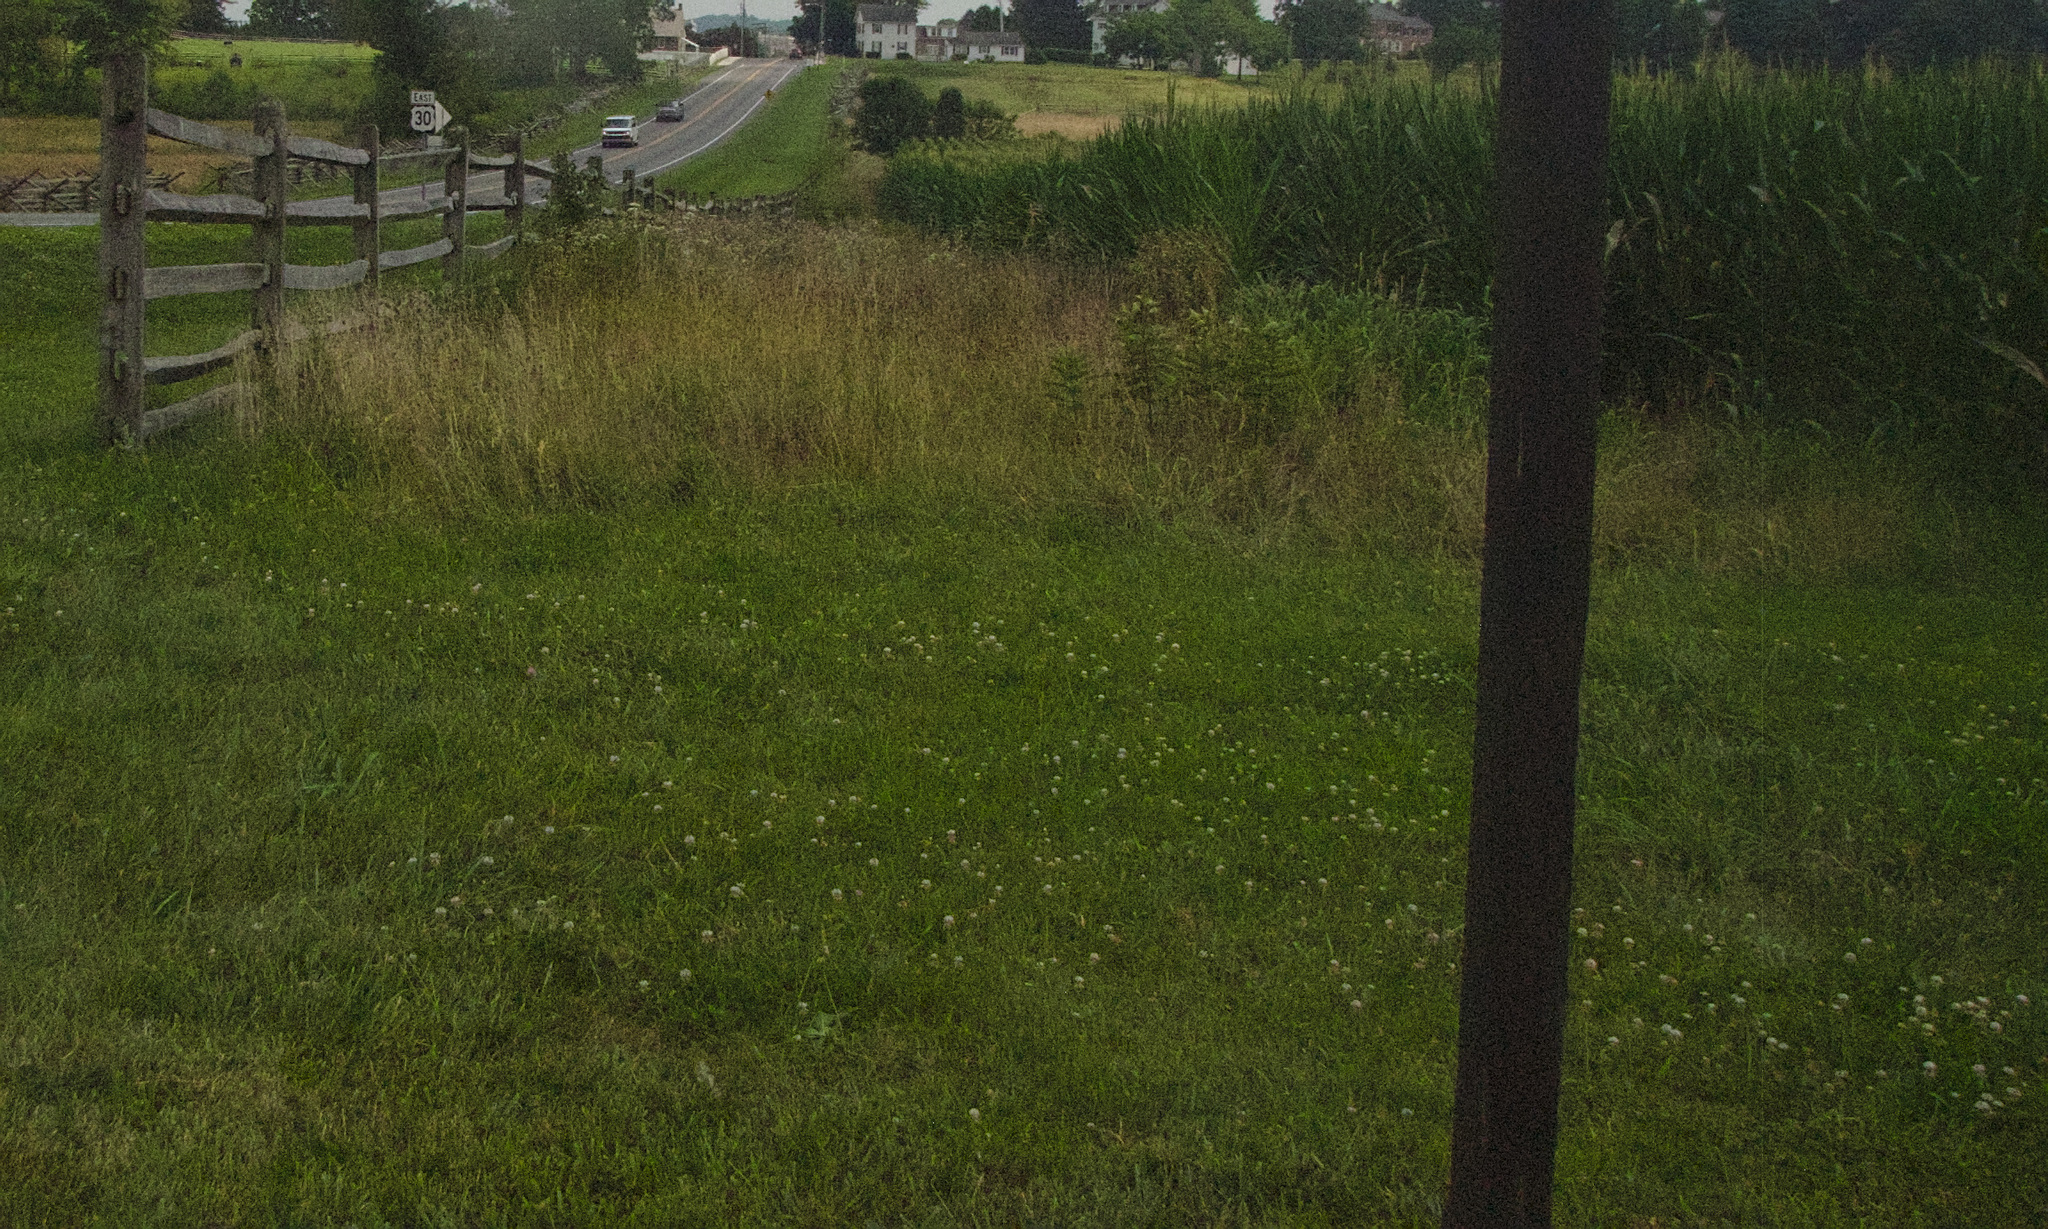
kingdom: Plantae
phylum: Tracheophyta
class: Magnoliopsida
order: Fabales
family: Fabaceae
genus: Trifolium
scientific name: Trifolium repens
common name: White clover
